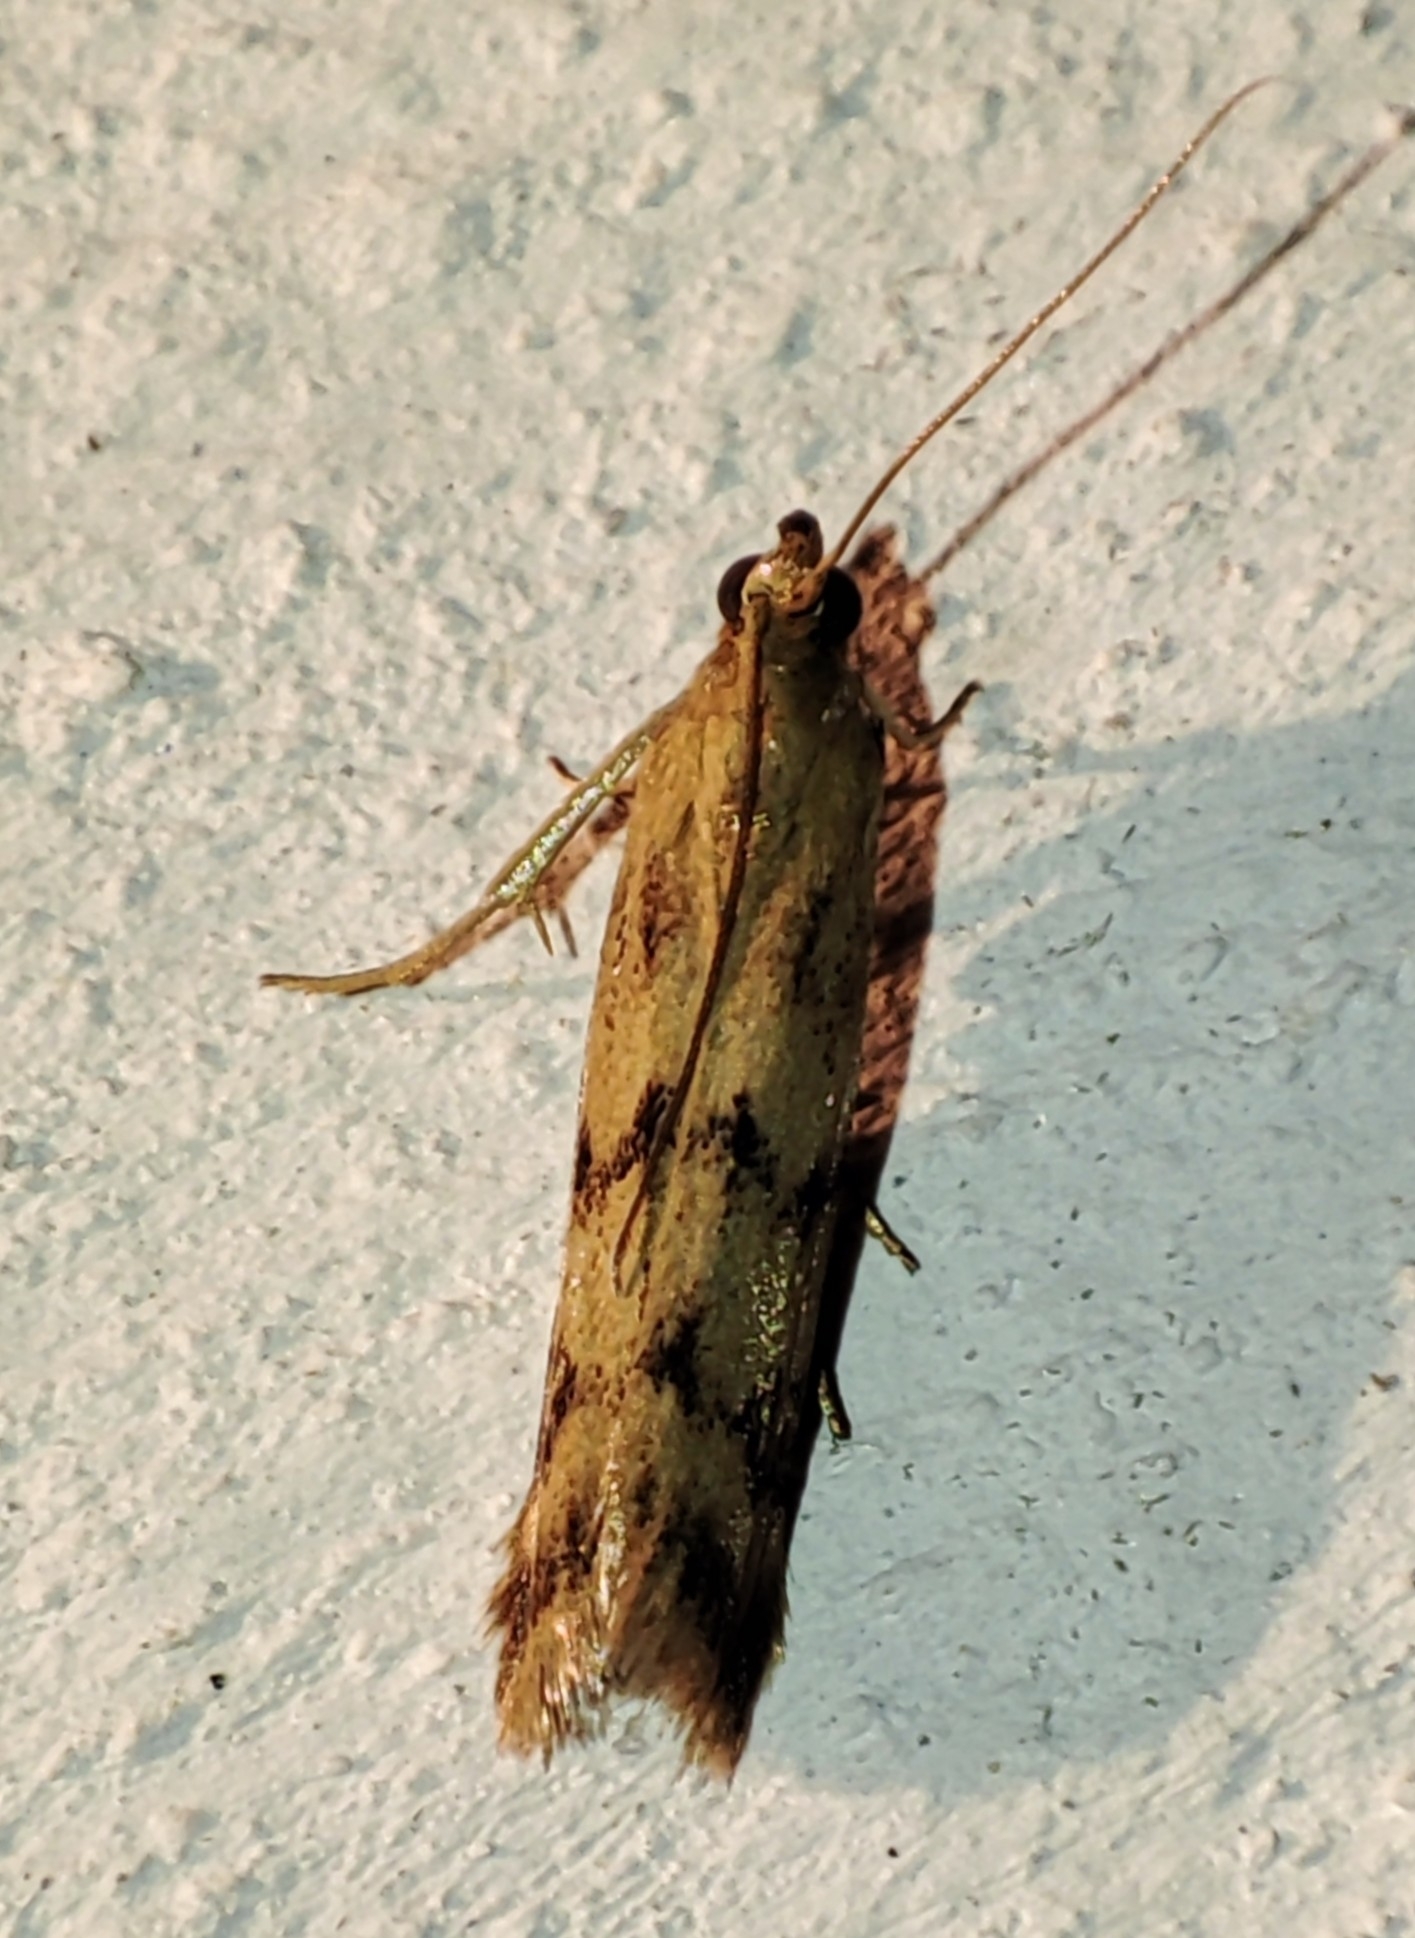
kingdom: Animalia
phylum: Arthropoda
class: Insecta
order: Lepidoptera
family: Pyralidae
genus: Homoeosoma
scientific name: Homoeosoma sinuella
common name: Twin-barred knot-horn
